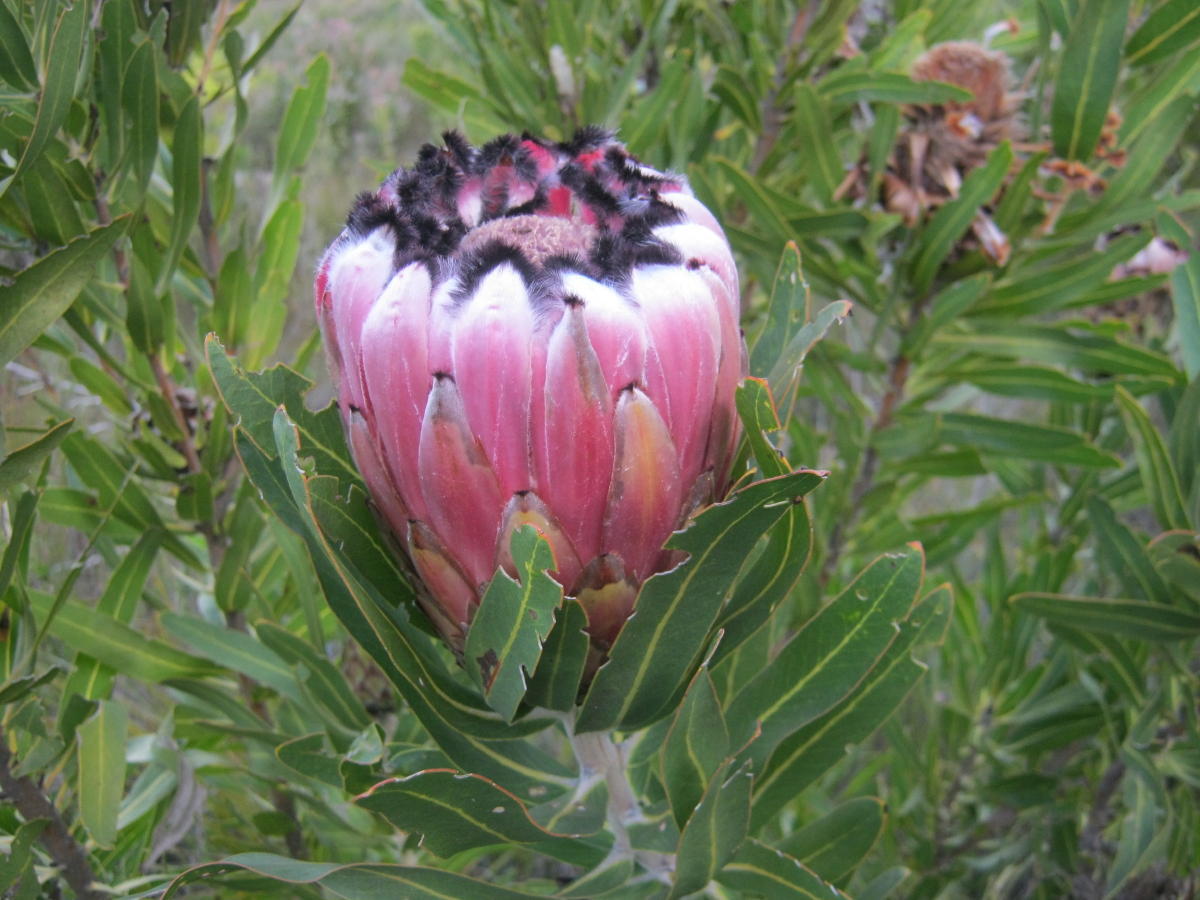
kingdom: Plantae
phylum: Tracheophyta
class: Magnoliopsida
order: Proteales
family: Proteaceae
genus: Protea
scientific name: Protea neriifolia
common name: Blue sugarbush
